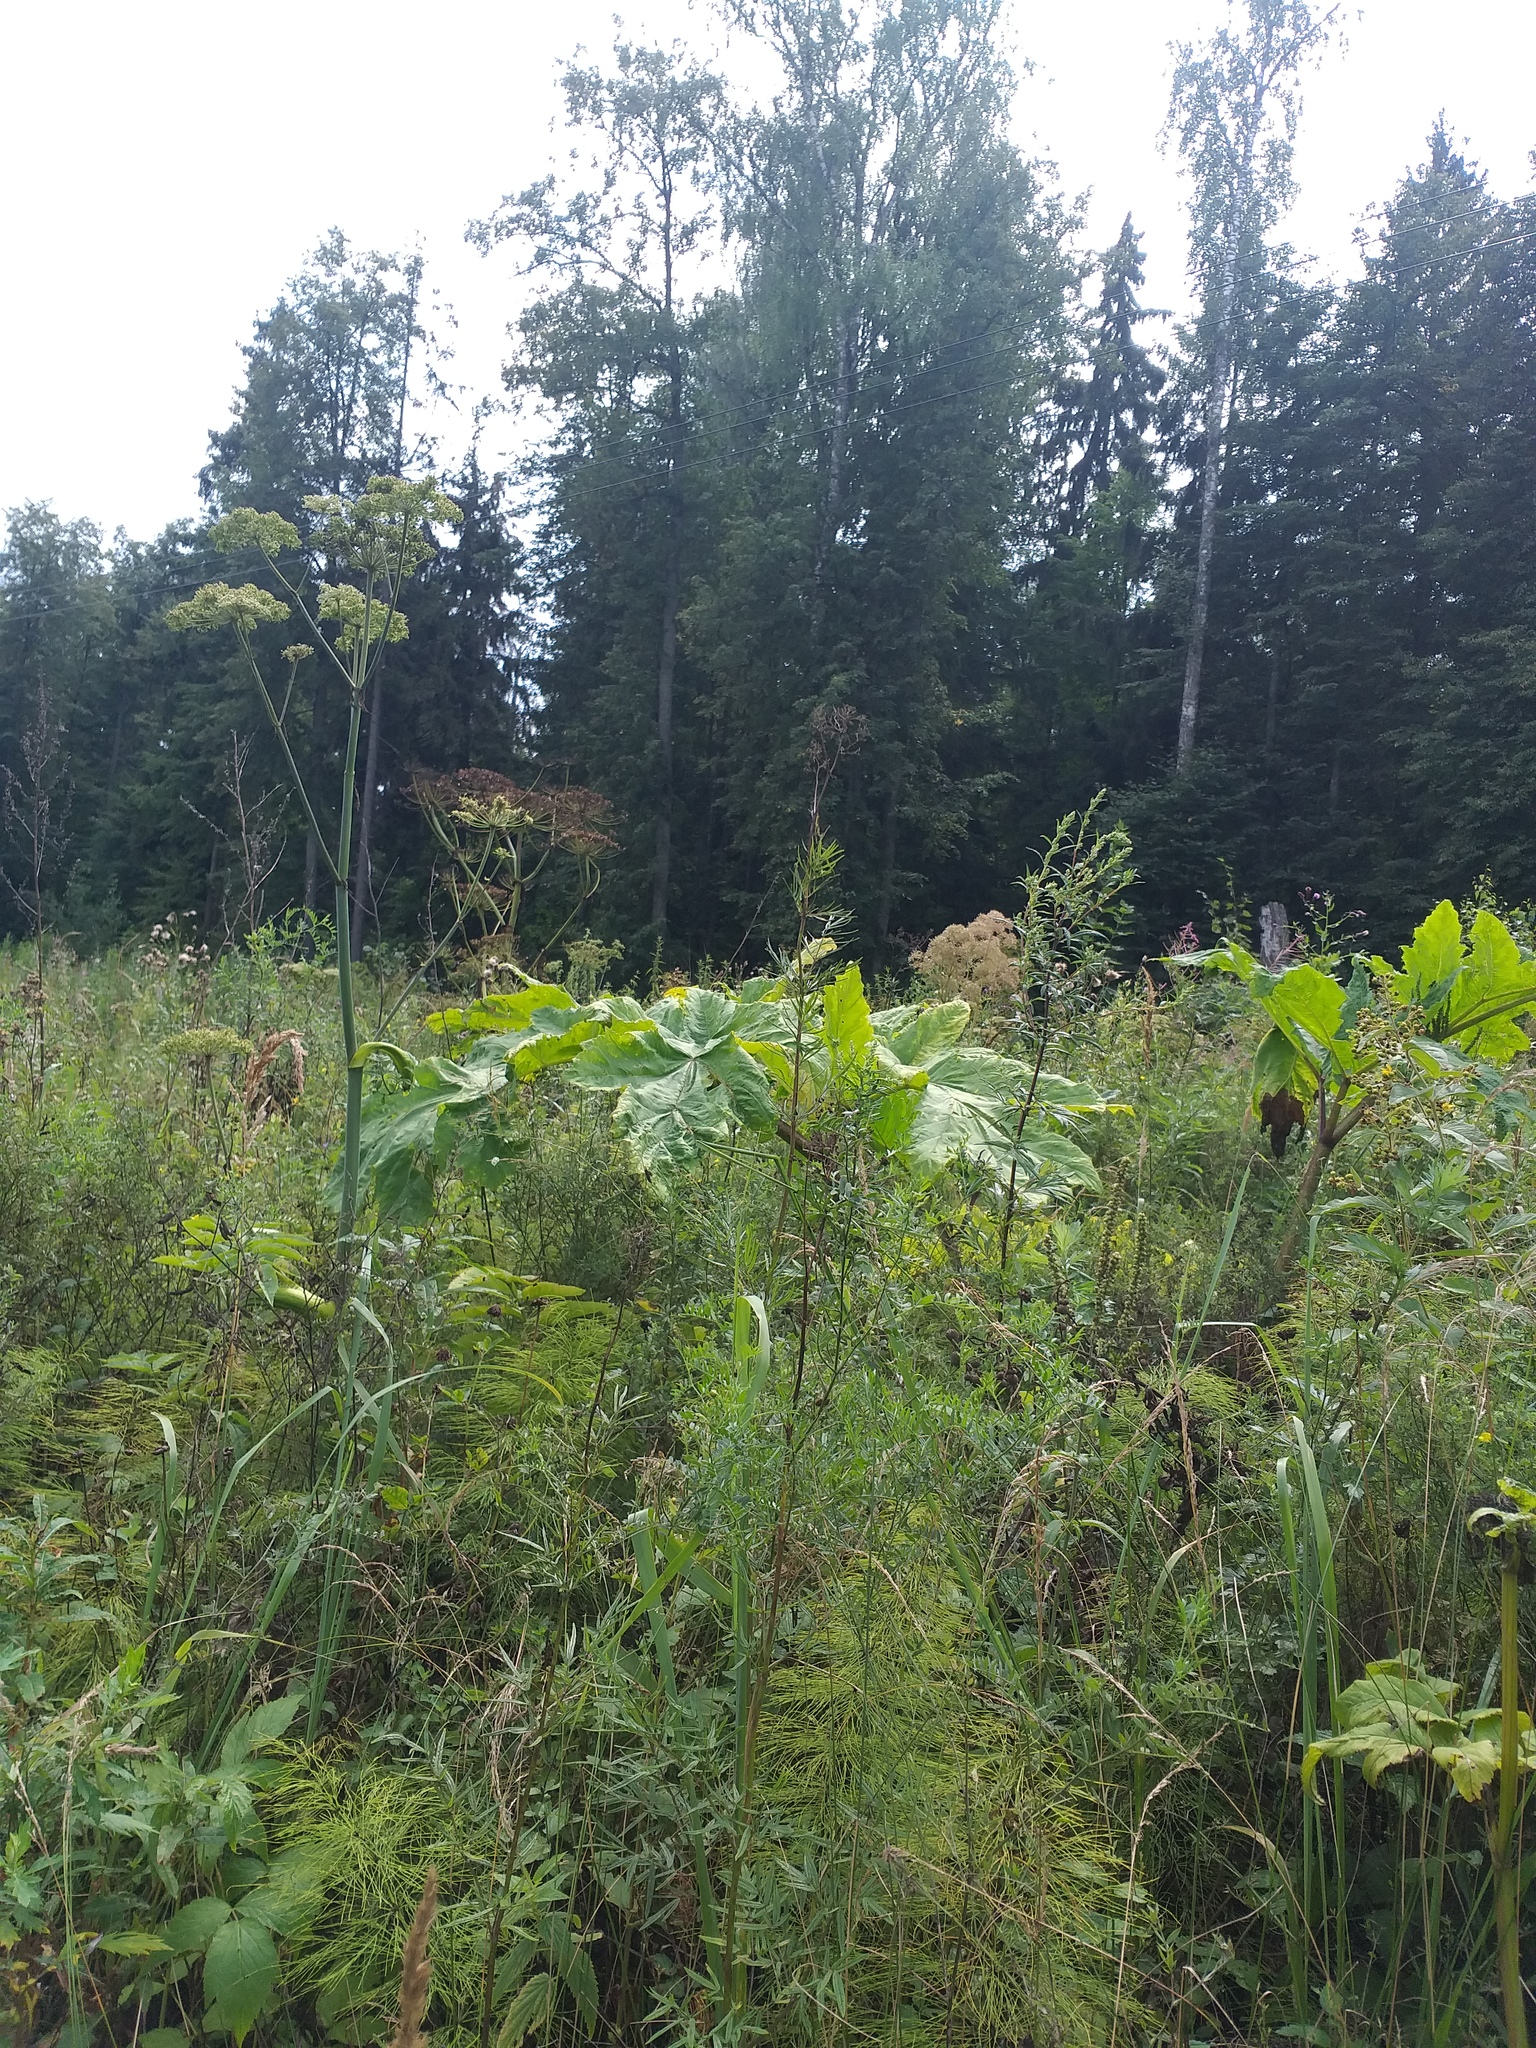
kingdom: Plantae
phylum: Tracheophyta
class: Magnoliopsida
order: Apiales
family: Apiaceae
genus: Heracleum
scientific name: Heracleum sosnowskyi
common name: Sosnowsky's hogweed
